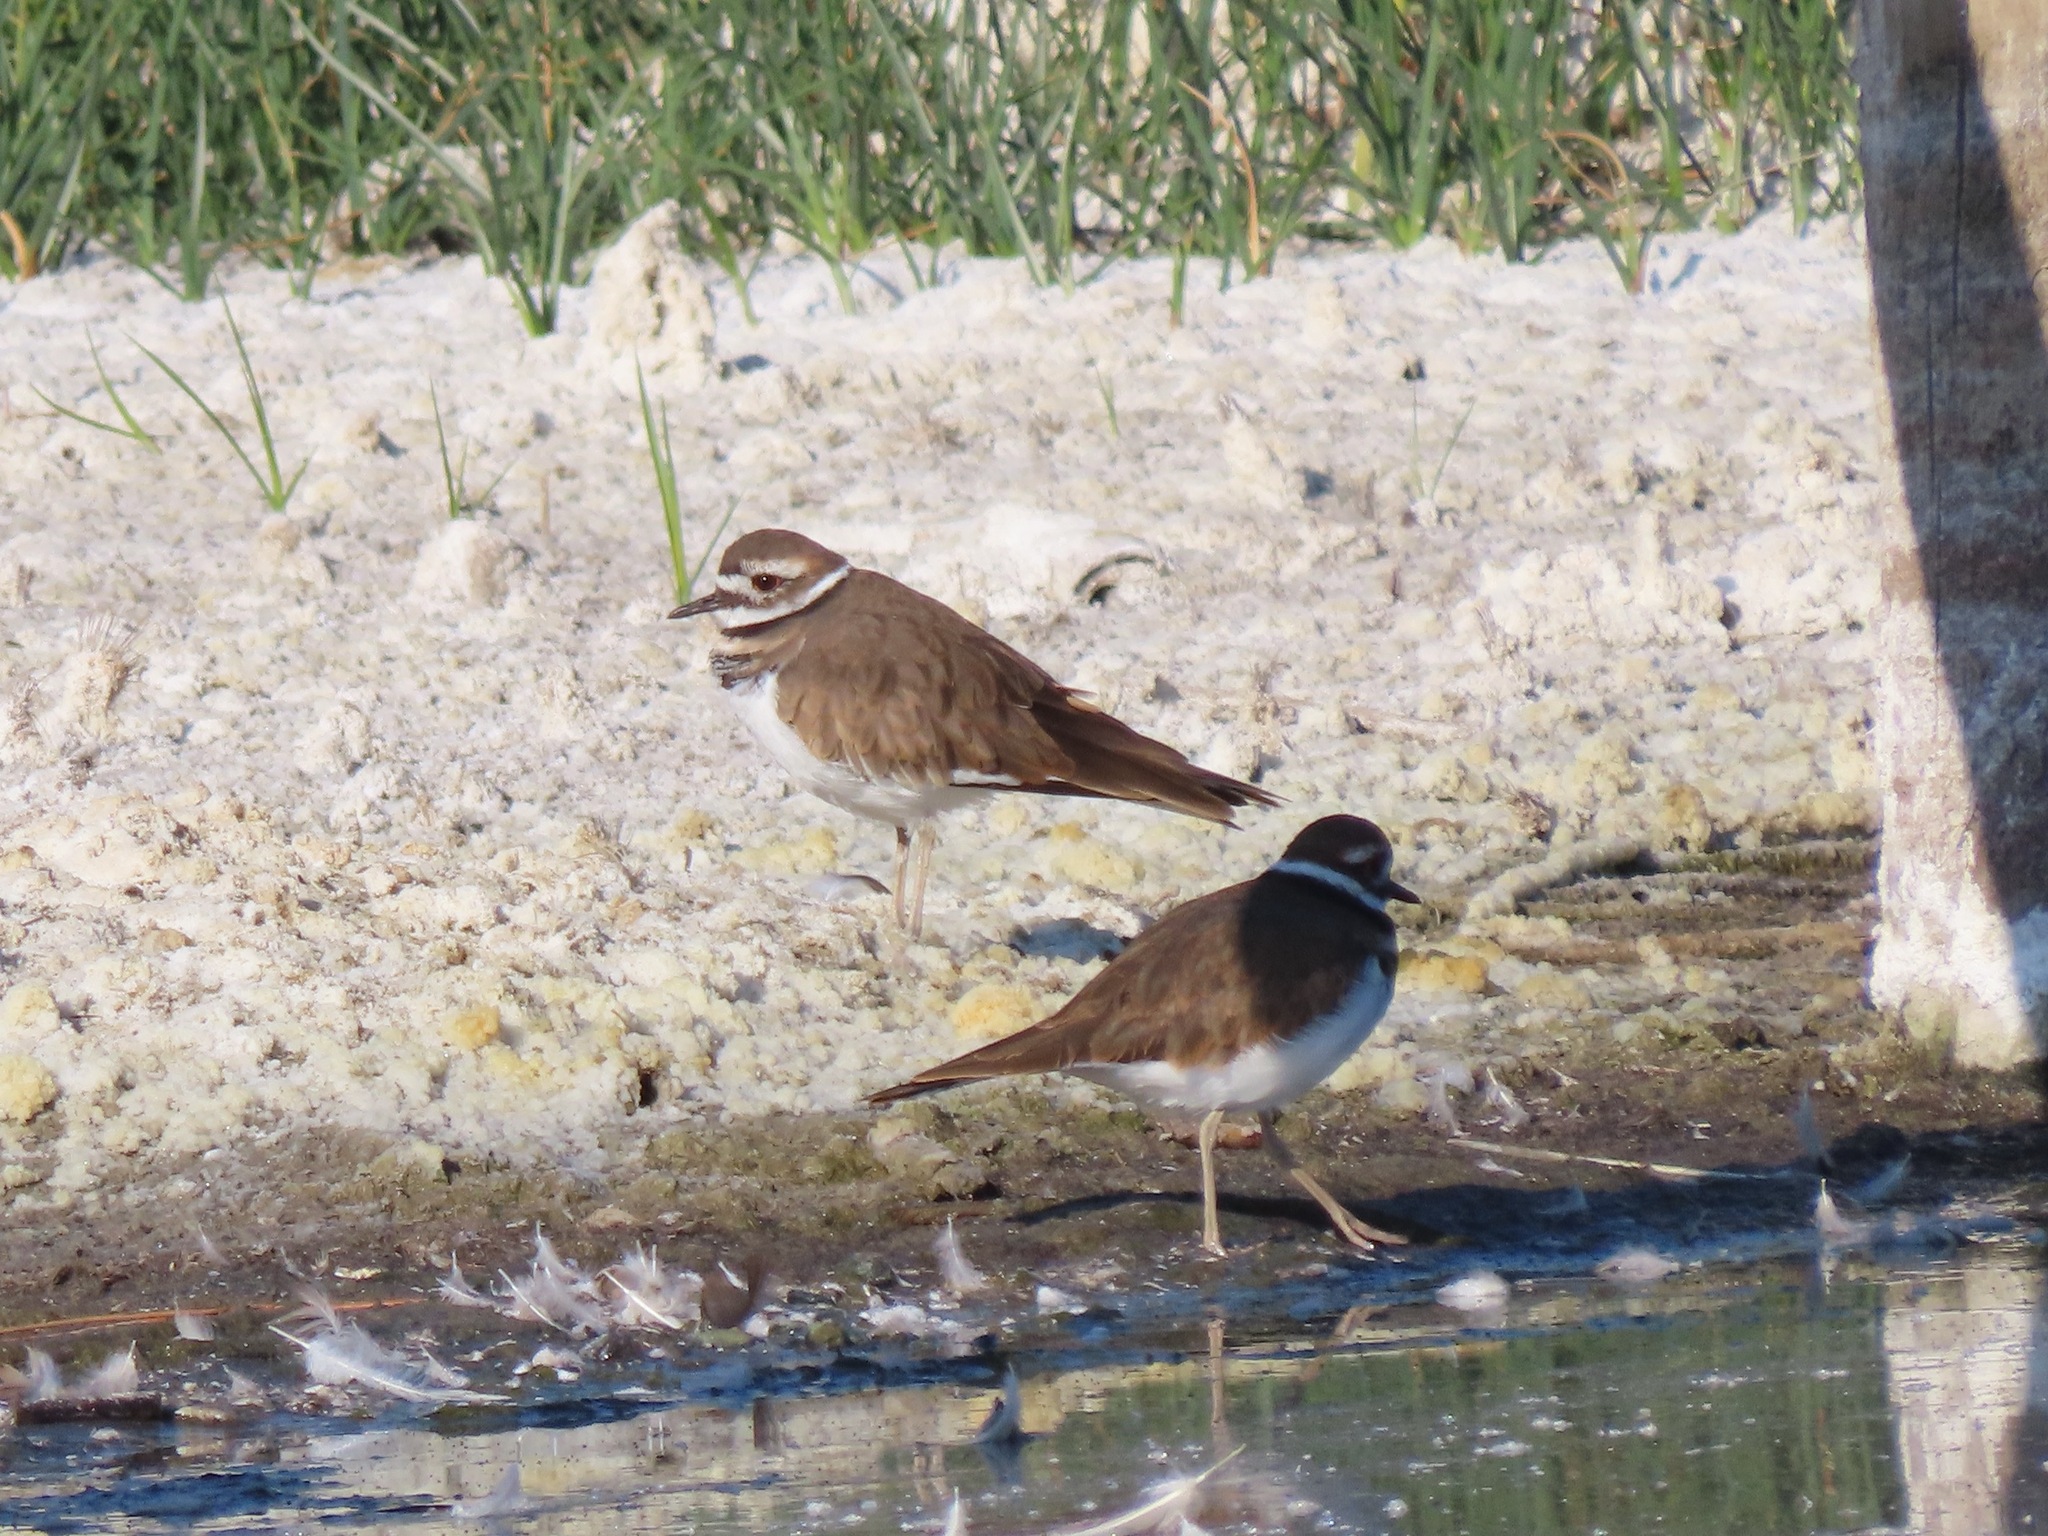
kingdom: Animalia
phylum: Chordata
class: Aves
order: Charadriiformes
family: Charadriidae
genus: Charadrius
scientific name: Charadrius vociferus
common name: Killdeer
